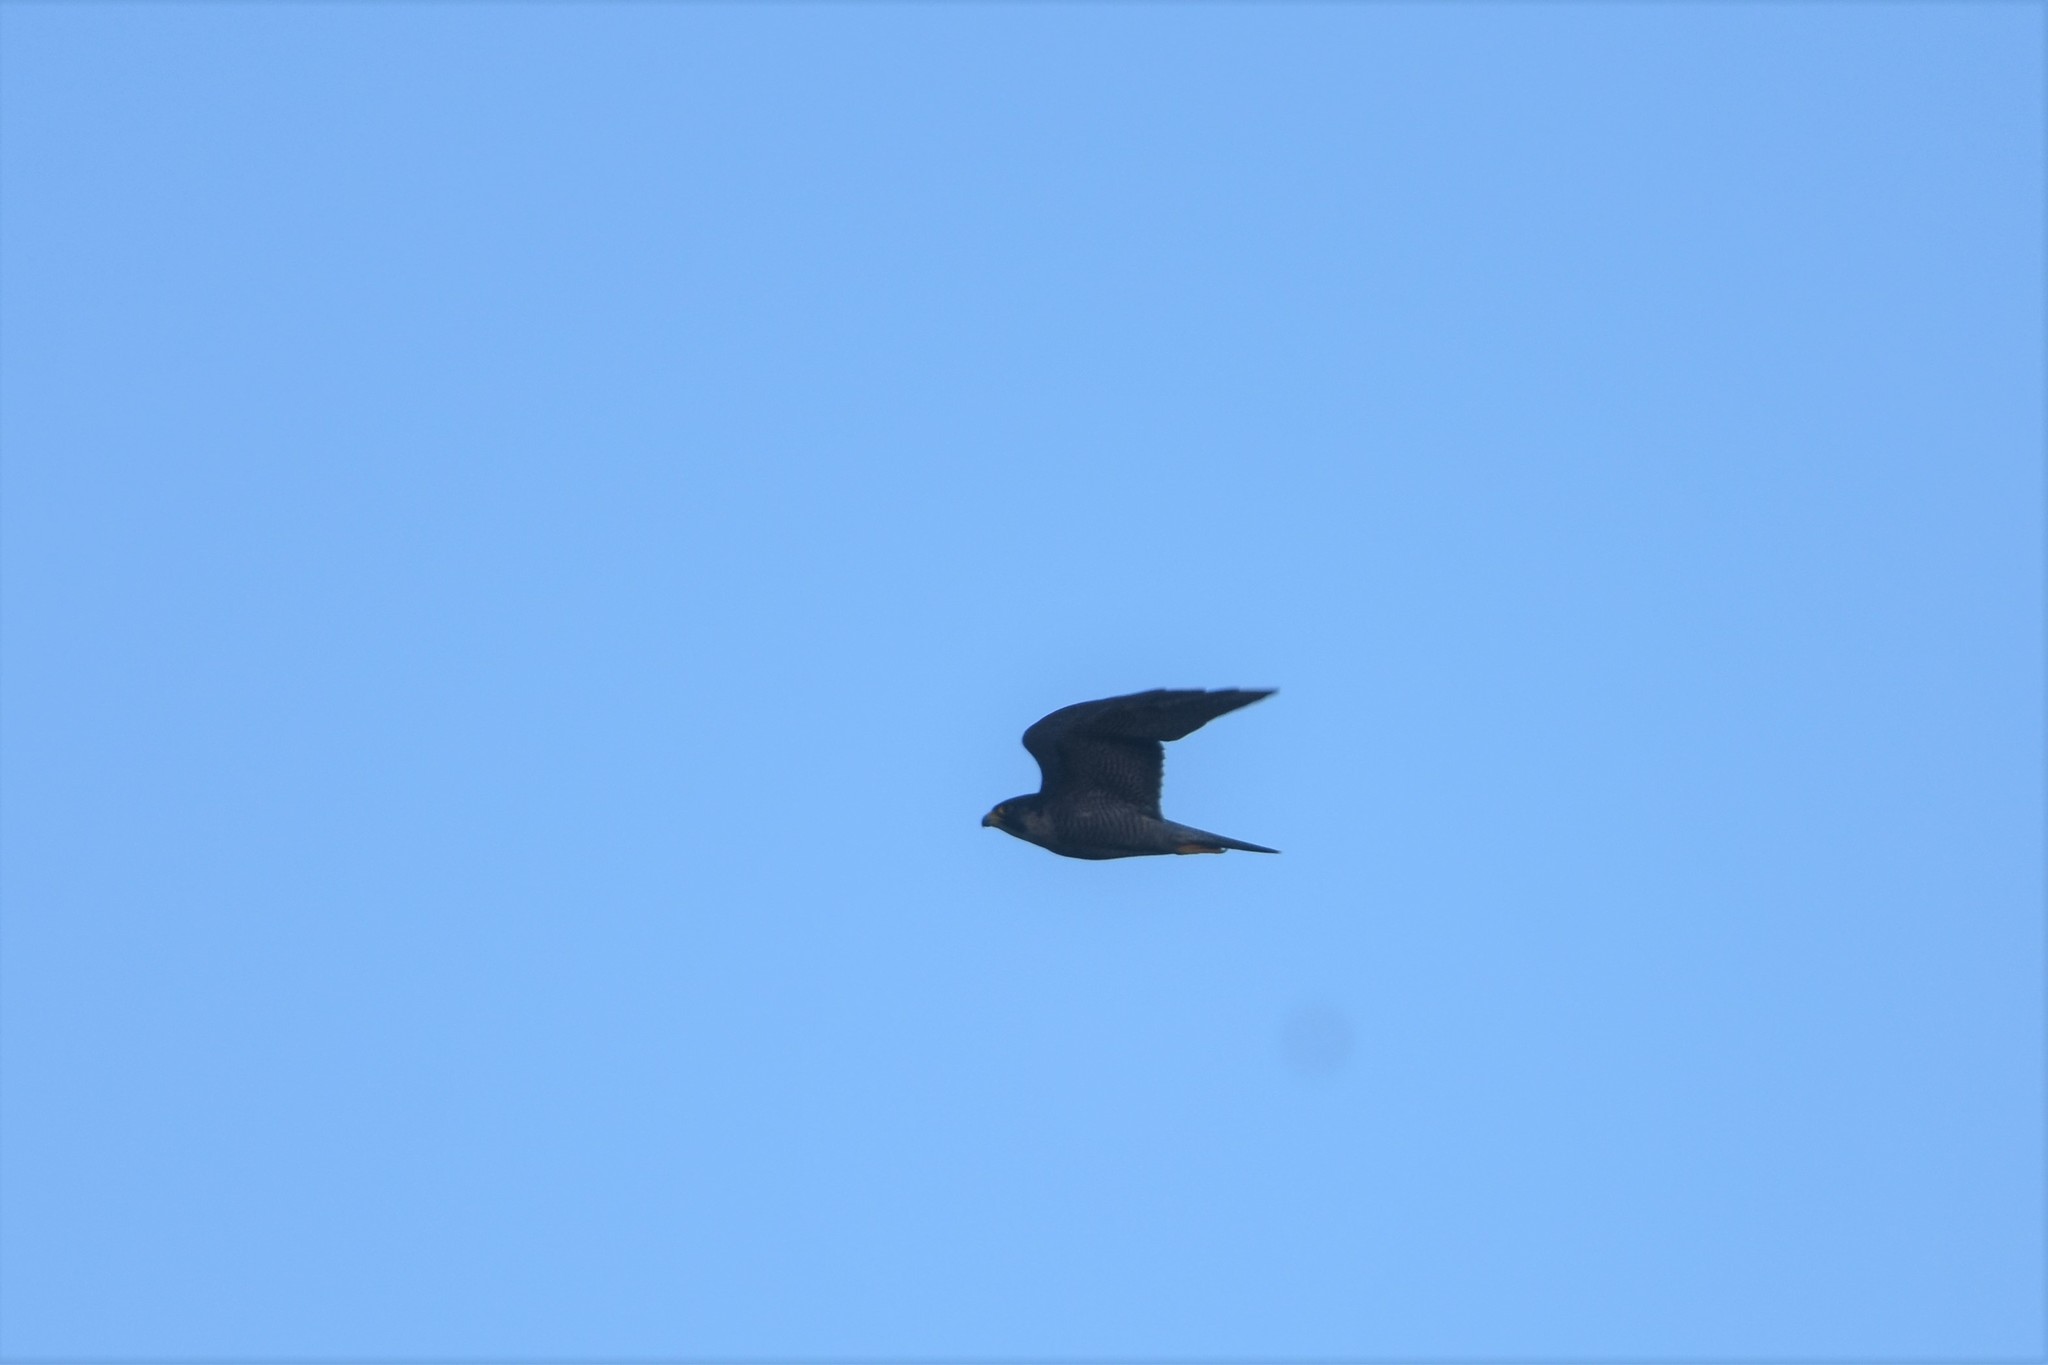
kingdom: Animalia
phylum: Chordata
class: Aves
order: Falconiformes
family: Falconidae
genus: Falco
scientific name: Falco peregrinus
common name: Peregrine falcon
